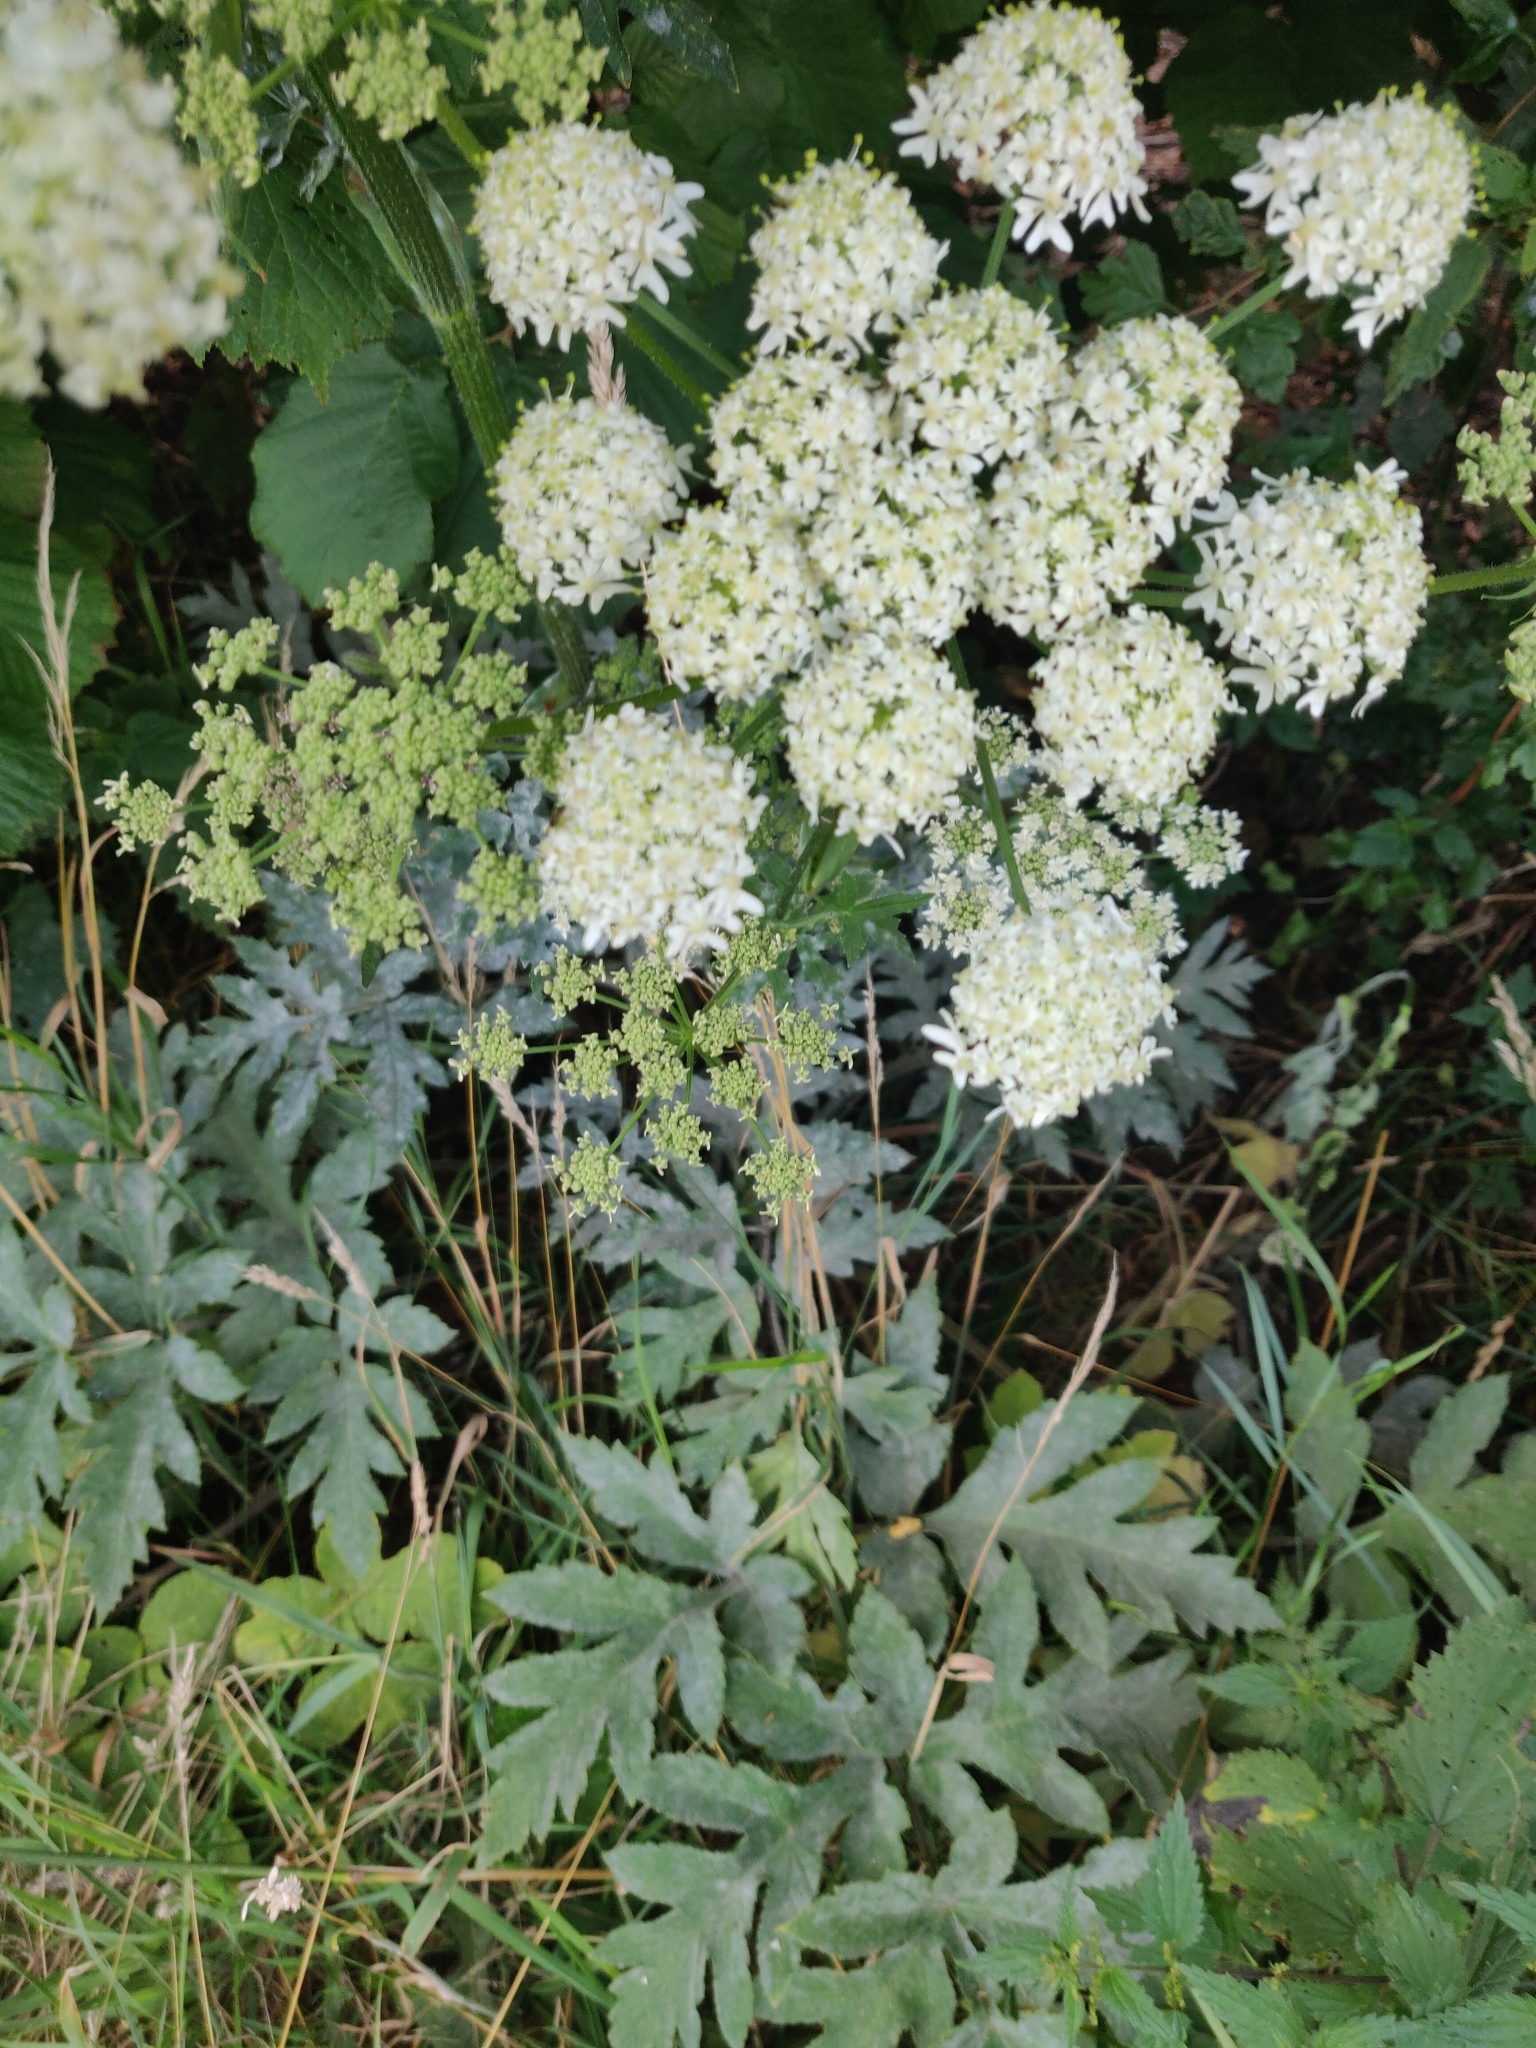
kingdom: Plantae
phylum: Tracheophyta
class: Magnoliopsida
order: Apiales
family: Apiaceae
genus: Heracleum
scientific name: Heracleum sphondylium
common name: Hogweed
